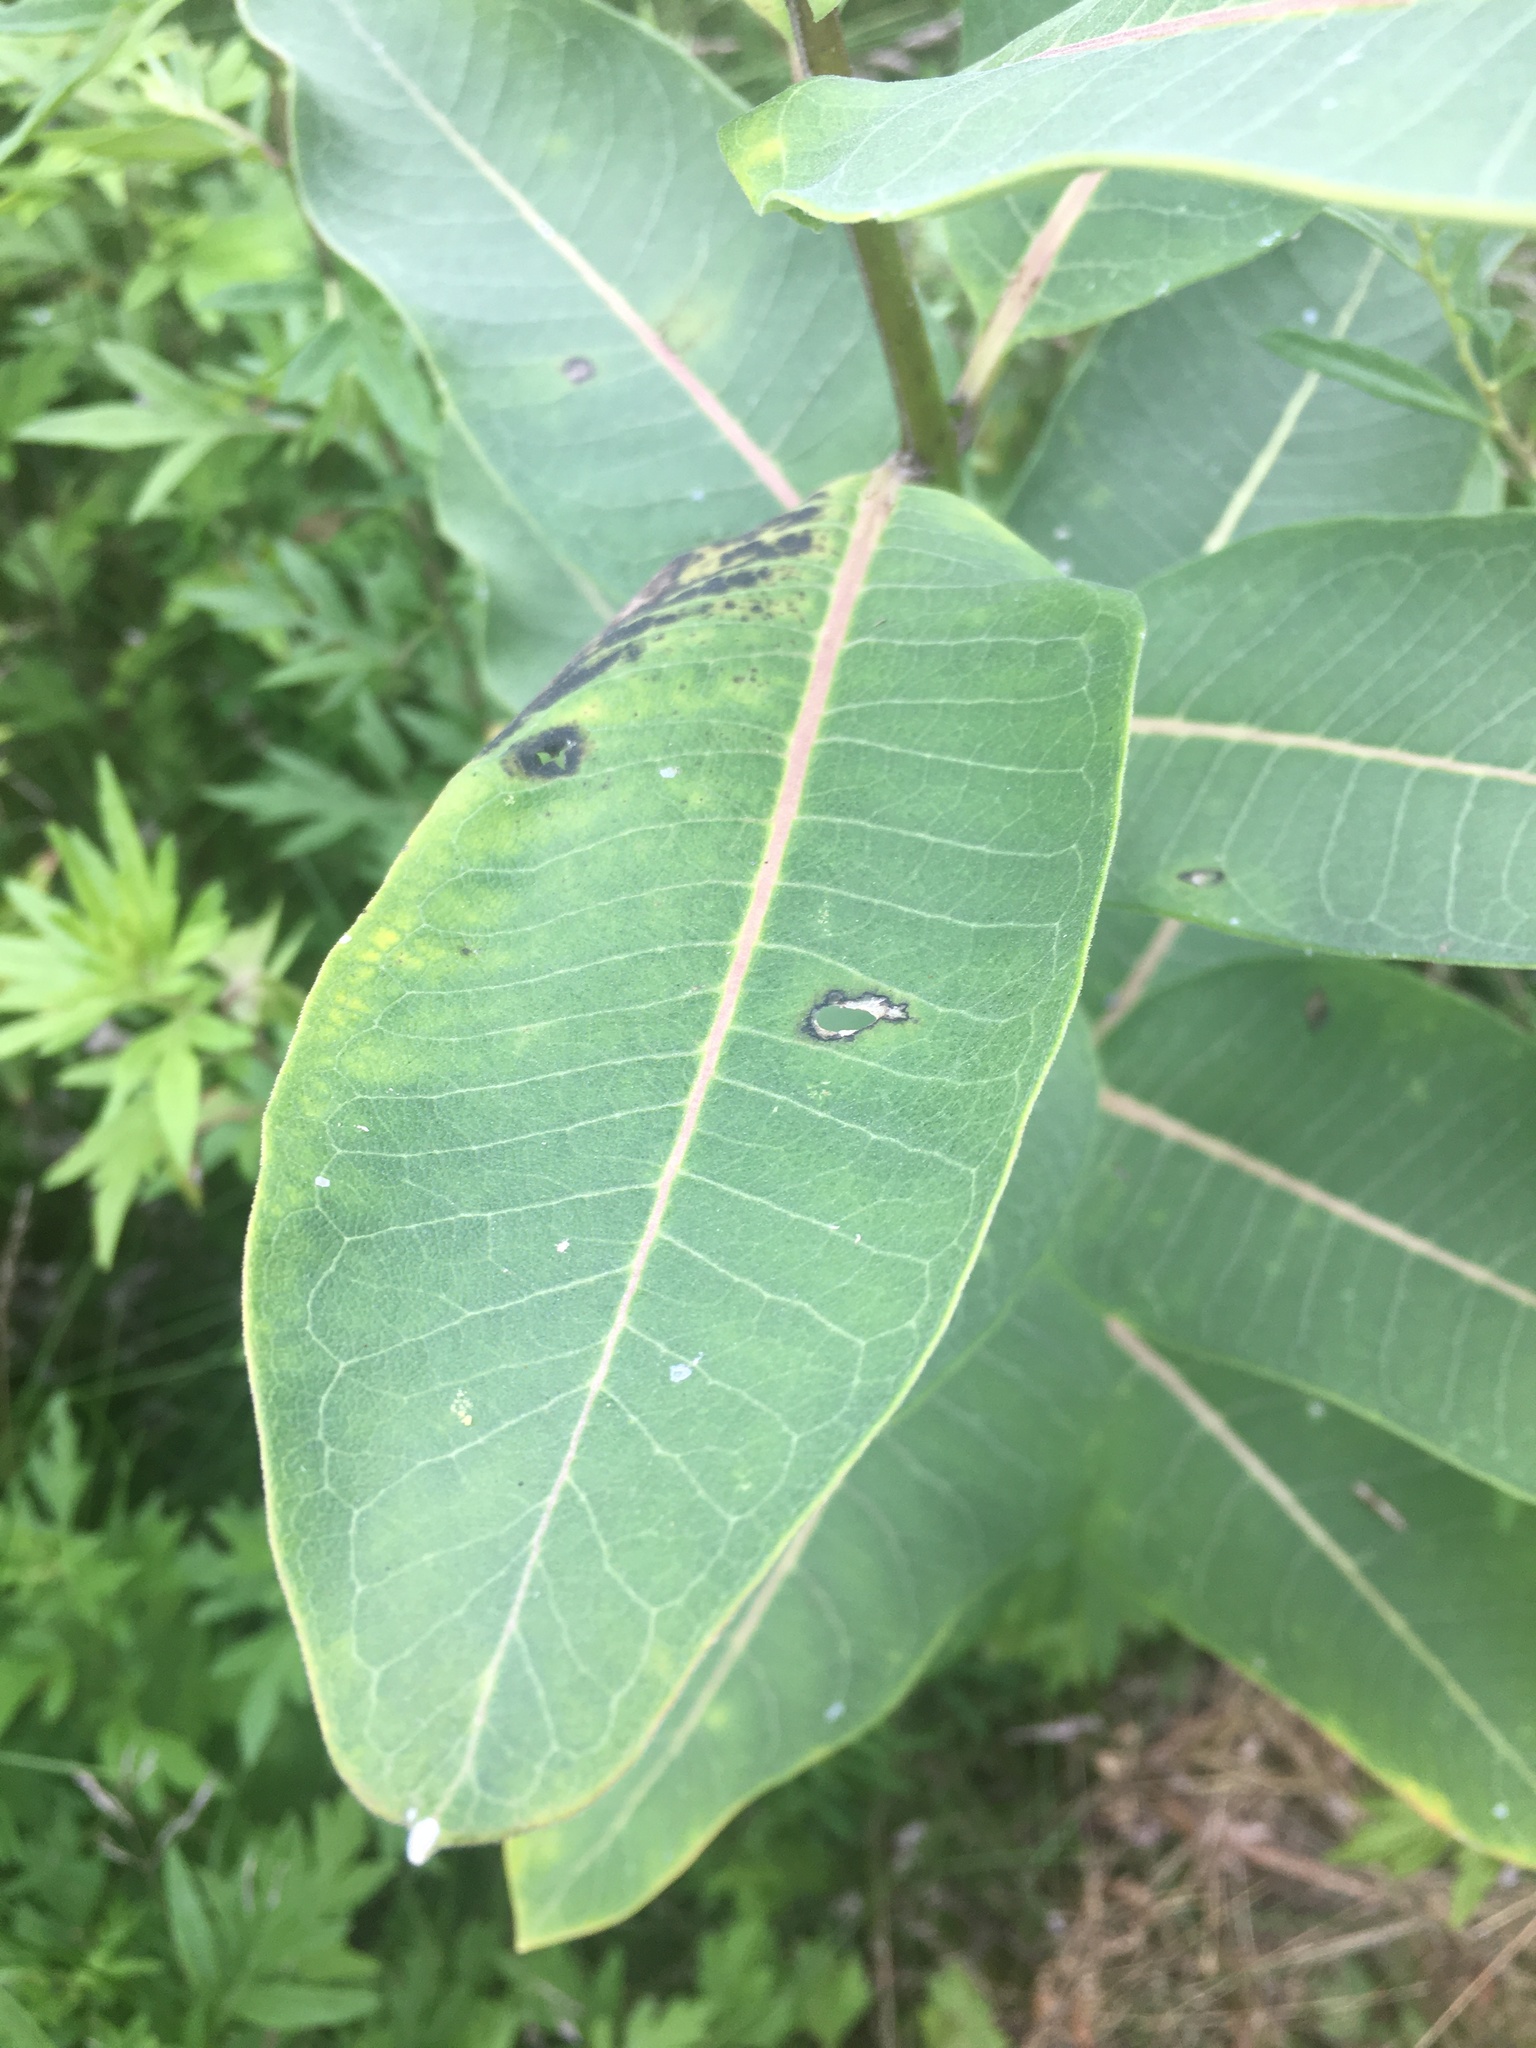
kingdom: Plantae
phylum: Tracheophyta
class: Magnoliopsida
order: Gentianales
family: Apocynaceae
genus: Asclepias
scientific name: Asclepias syriaca
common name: Common milkweed
